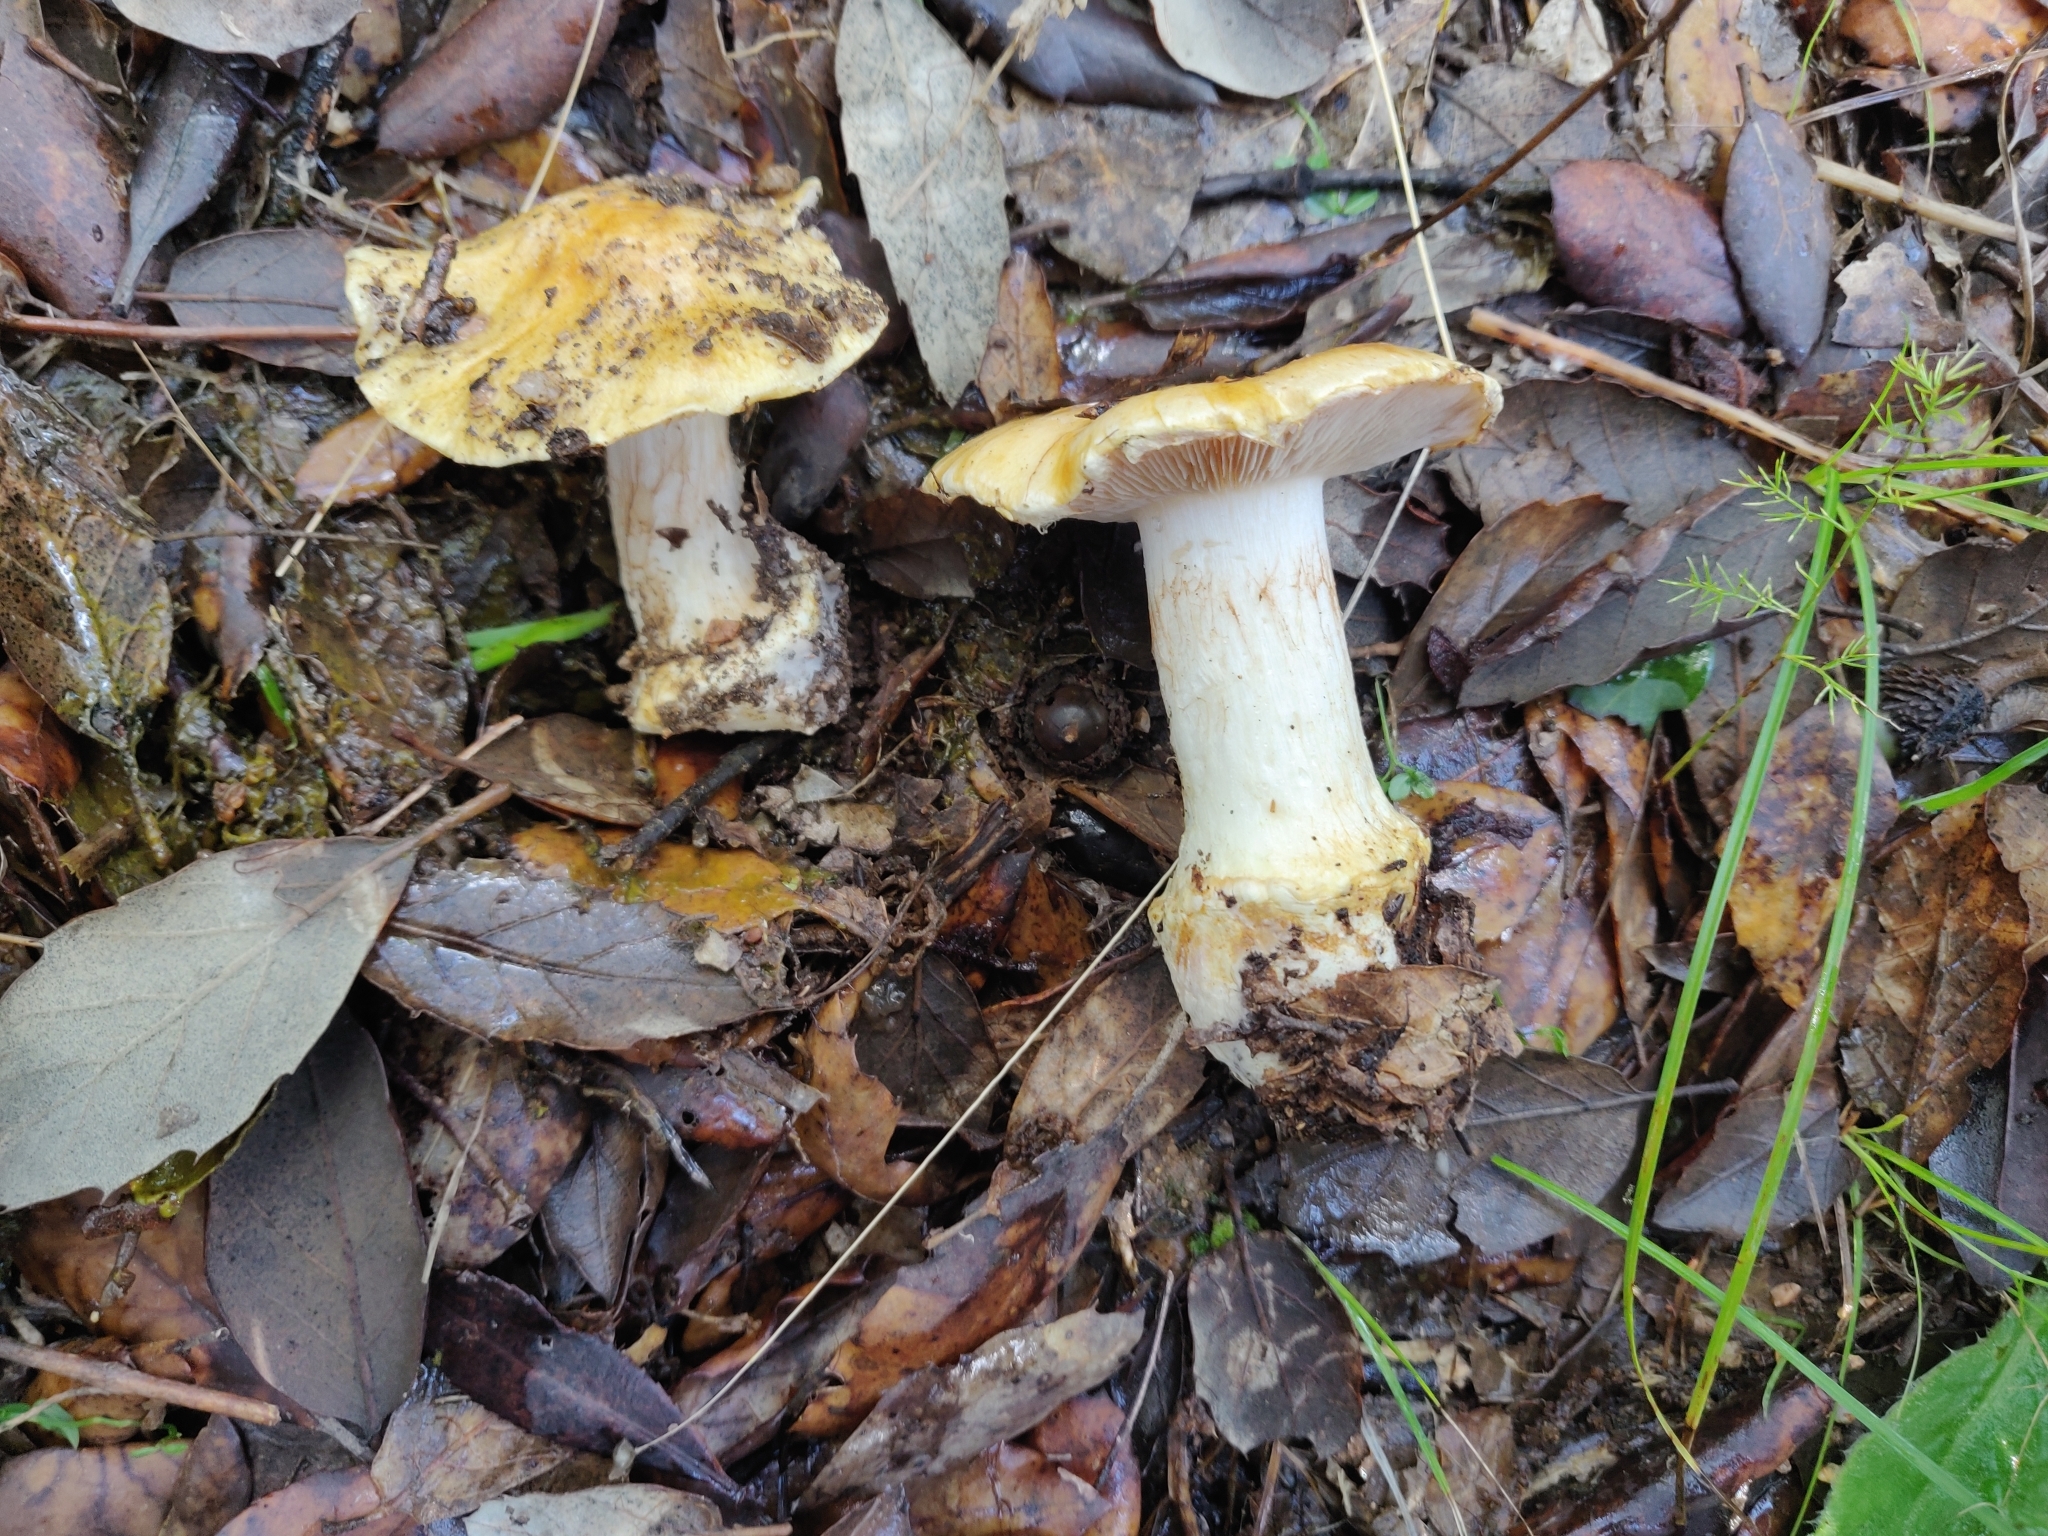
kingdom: Fungi
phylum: Basidiomycota
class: Agaricomycetes
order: Agaricales
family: Cortinariaceae
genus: Phlegmacium
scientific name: Phlegmacium xantho-ochraceum
